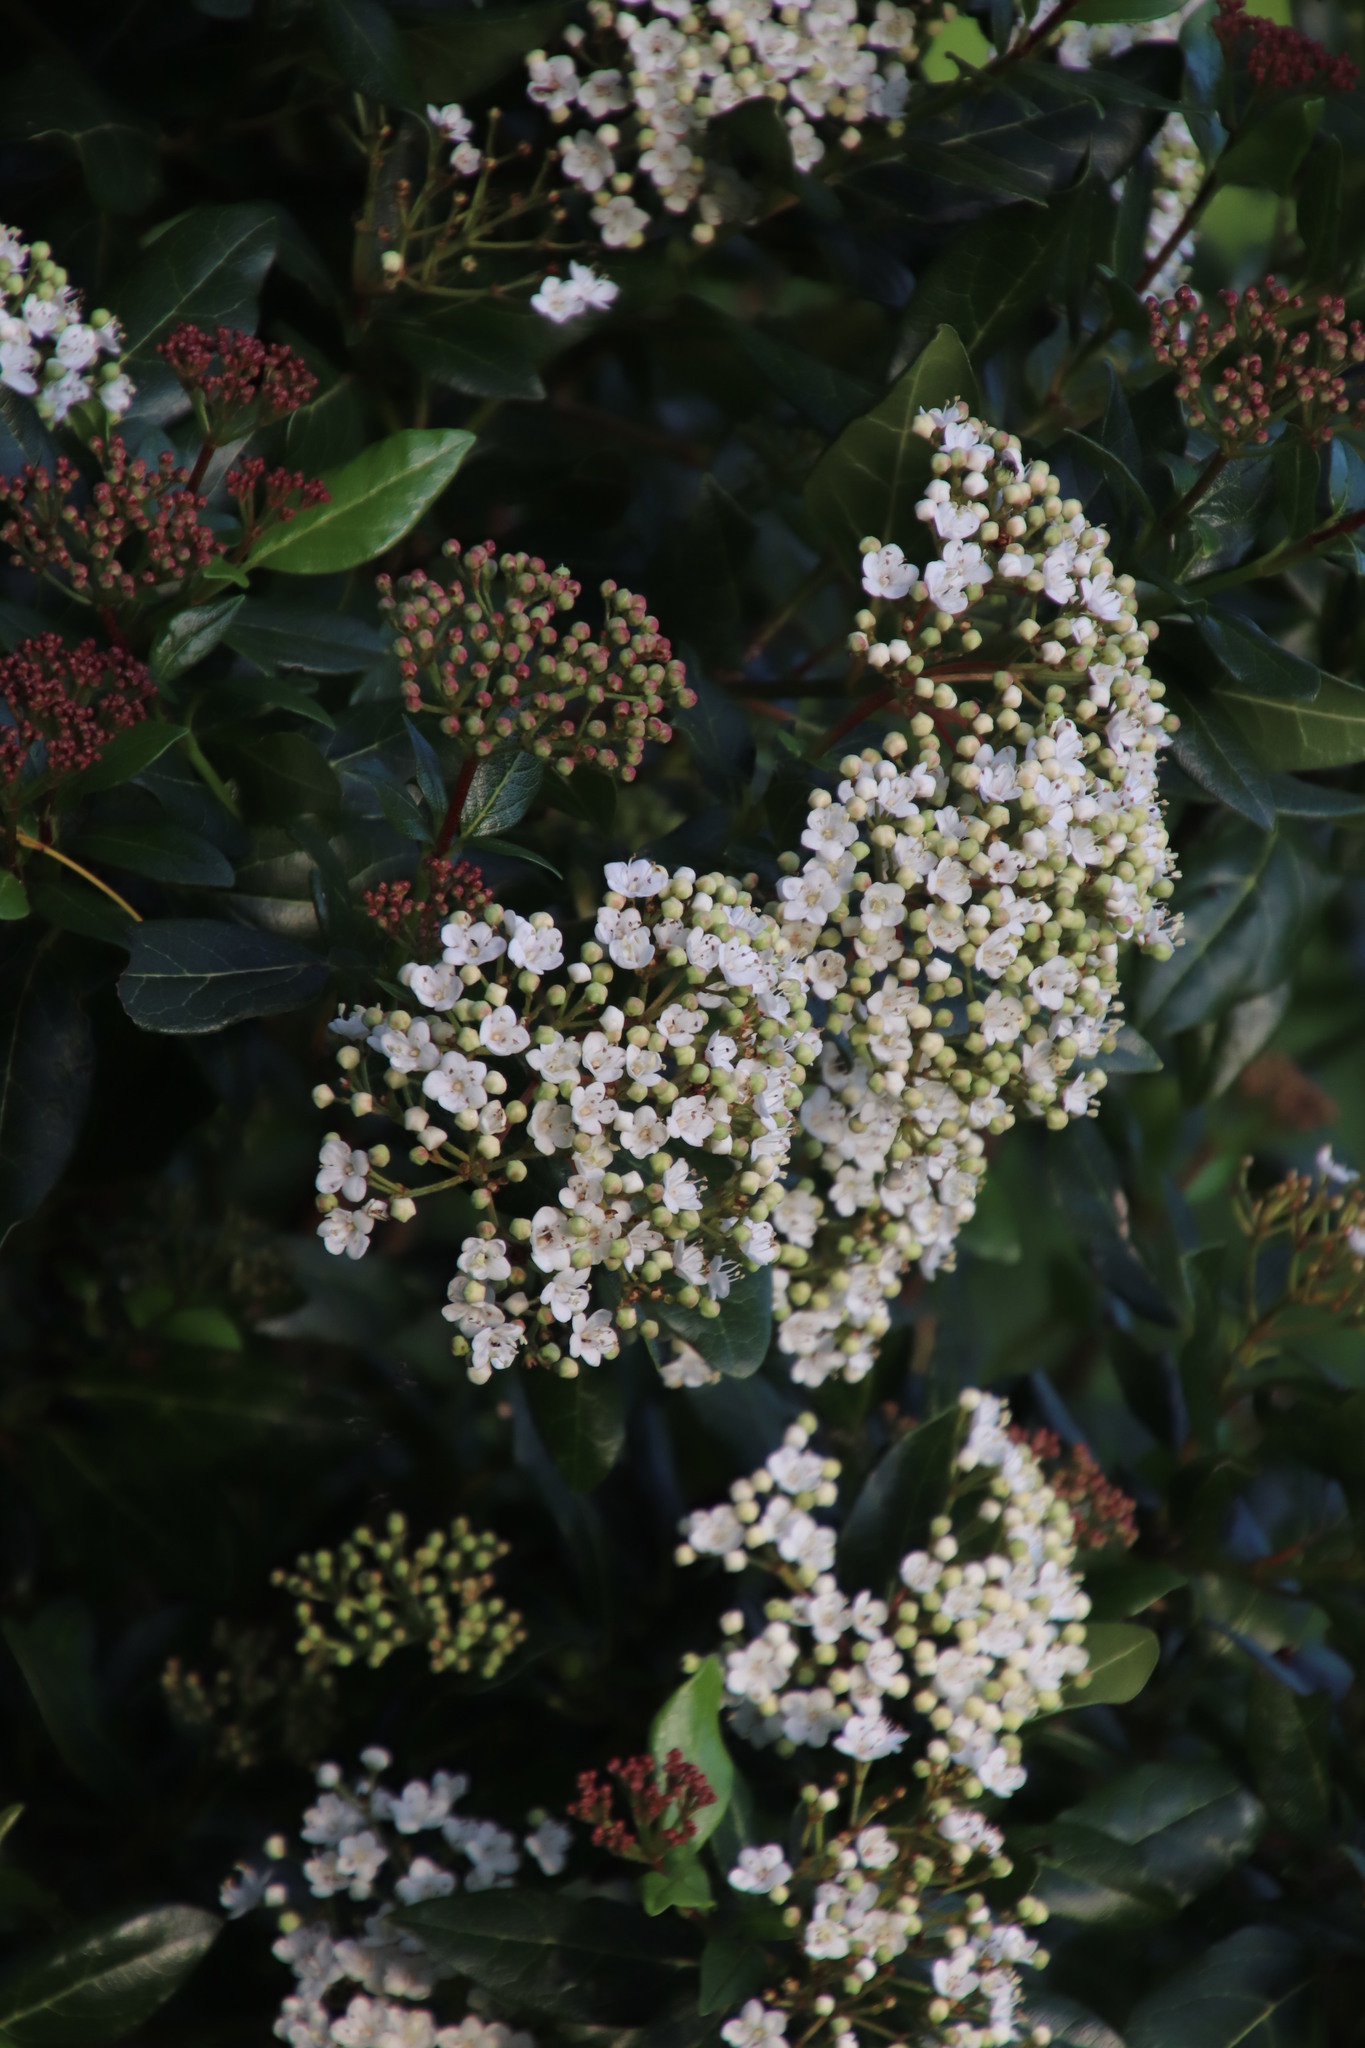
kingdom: Plantae
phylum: Tracheophyta
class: Magnoliopsida
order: Dipsacales
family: Viburnaceae
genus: Viburnum
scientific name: Viburnum tinus
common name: Laurustinus
